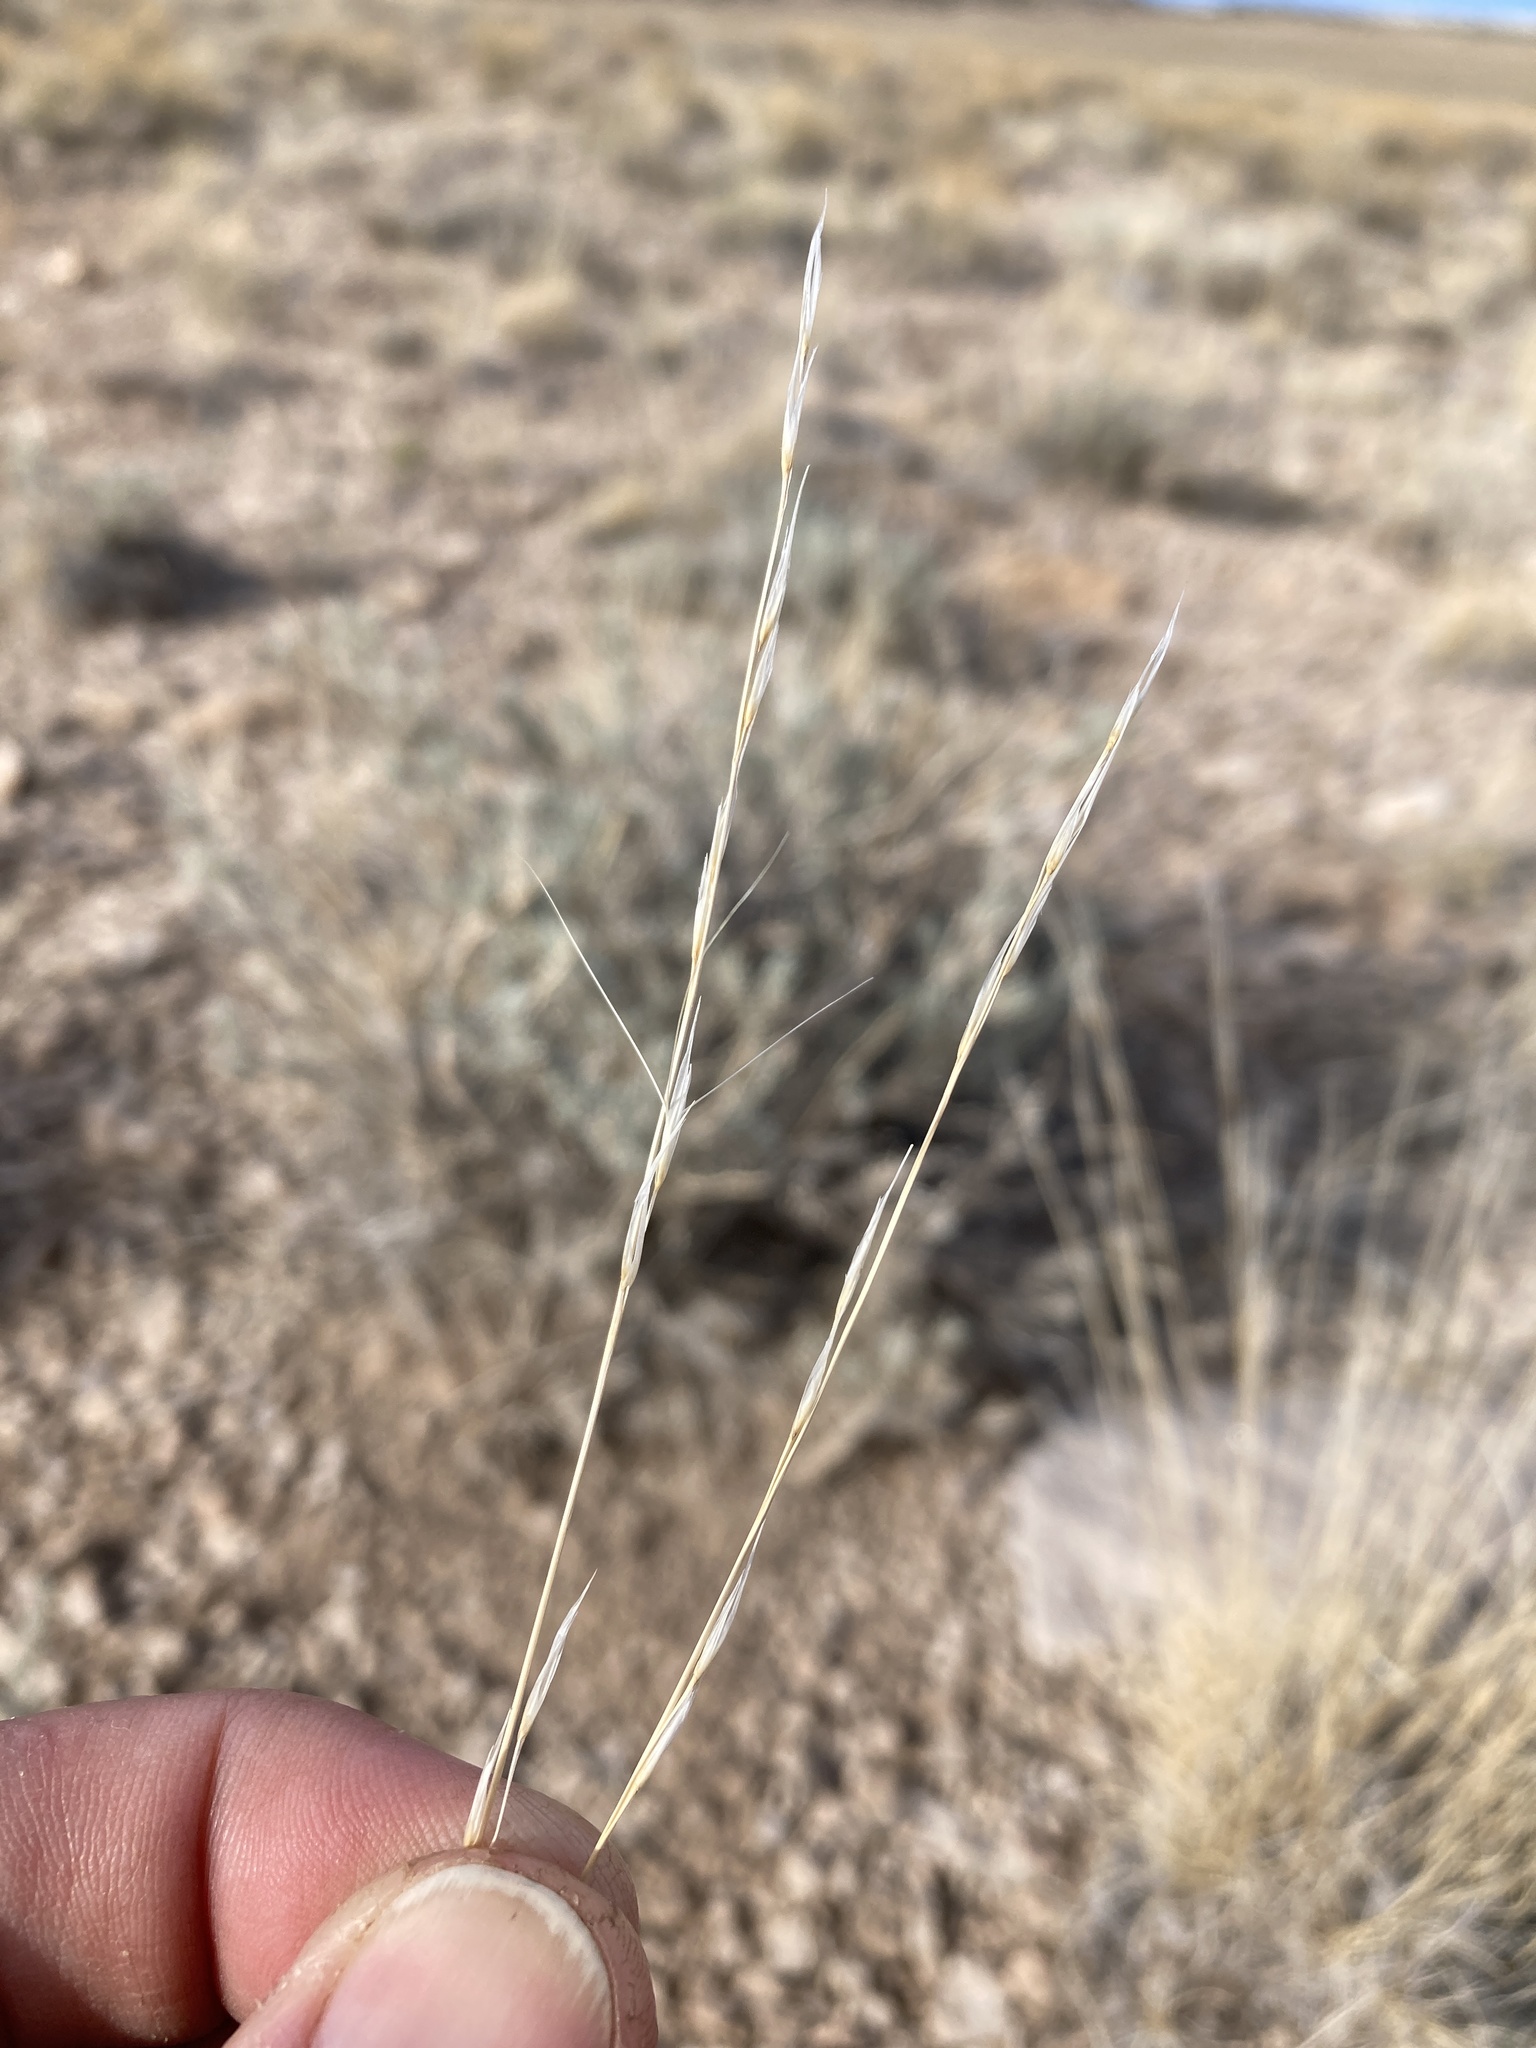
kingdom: Plantae
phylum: Tracheophyta
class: Liliopsida
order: Poales
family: Poaceae
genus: Aristida
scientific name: Aristida purpurea
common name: Purple threeawn
